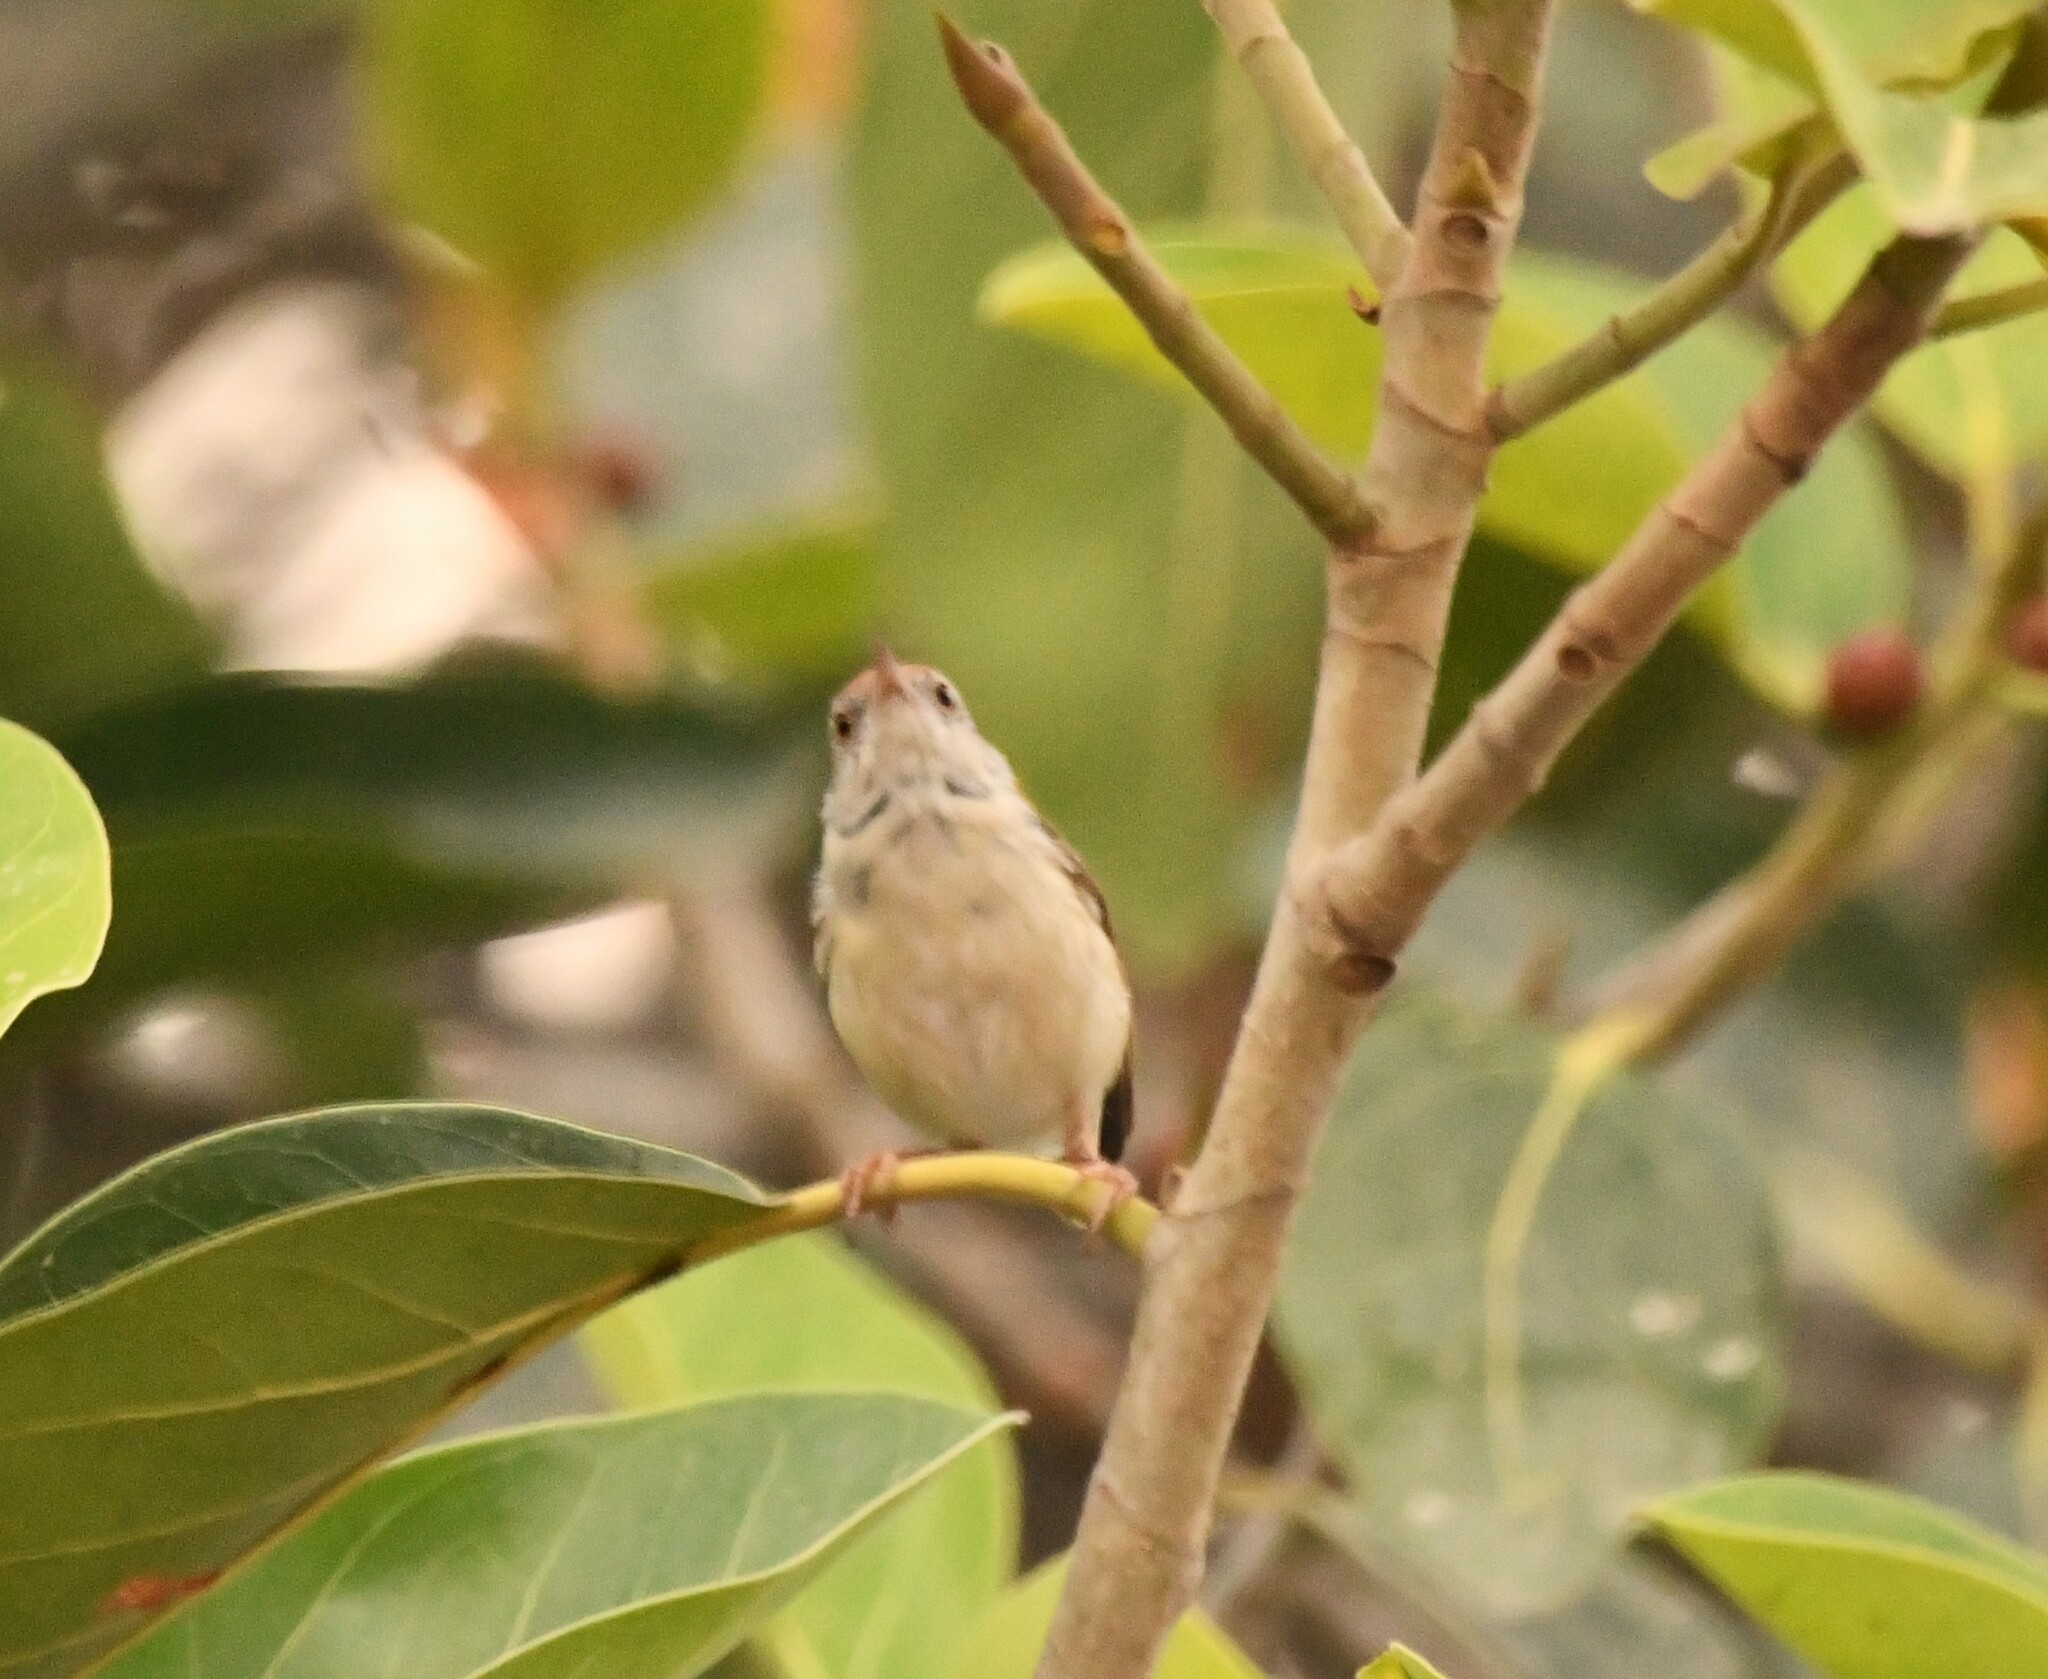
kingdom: Animalia
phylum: Chordata
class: Aves
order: Passeriformes
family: Cisticolidae
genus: Orthotomus
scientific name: Orthotomus sutorius
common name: Common tailorbird
